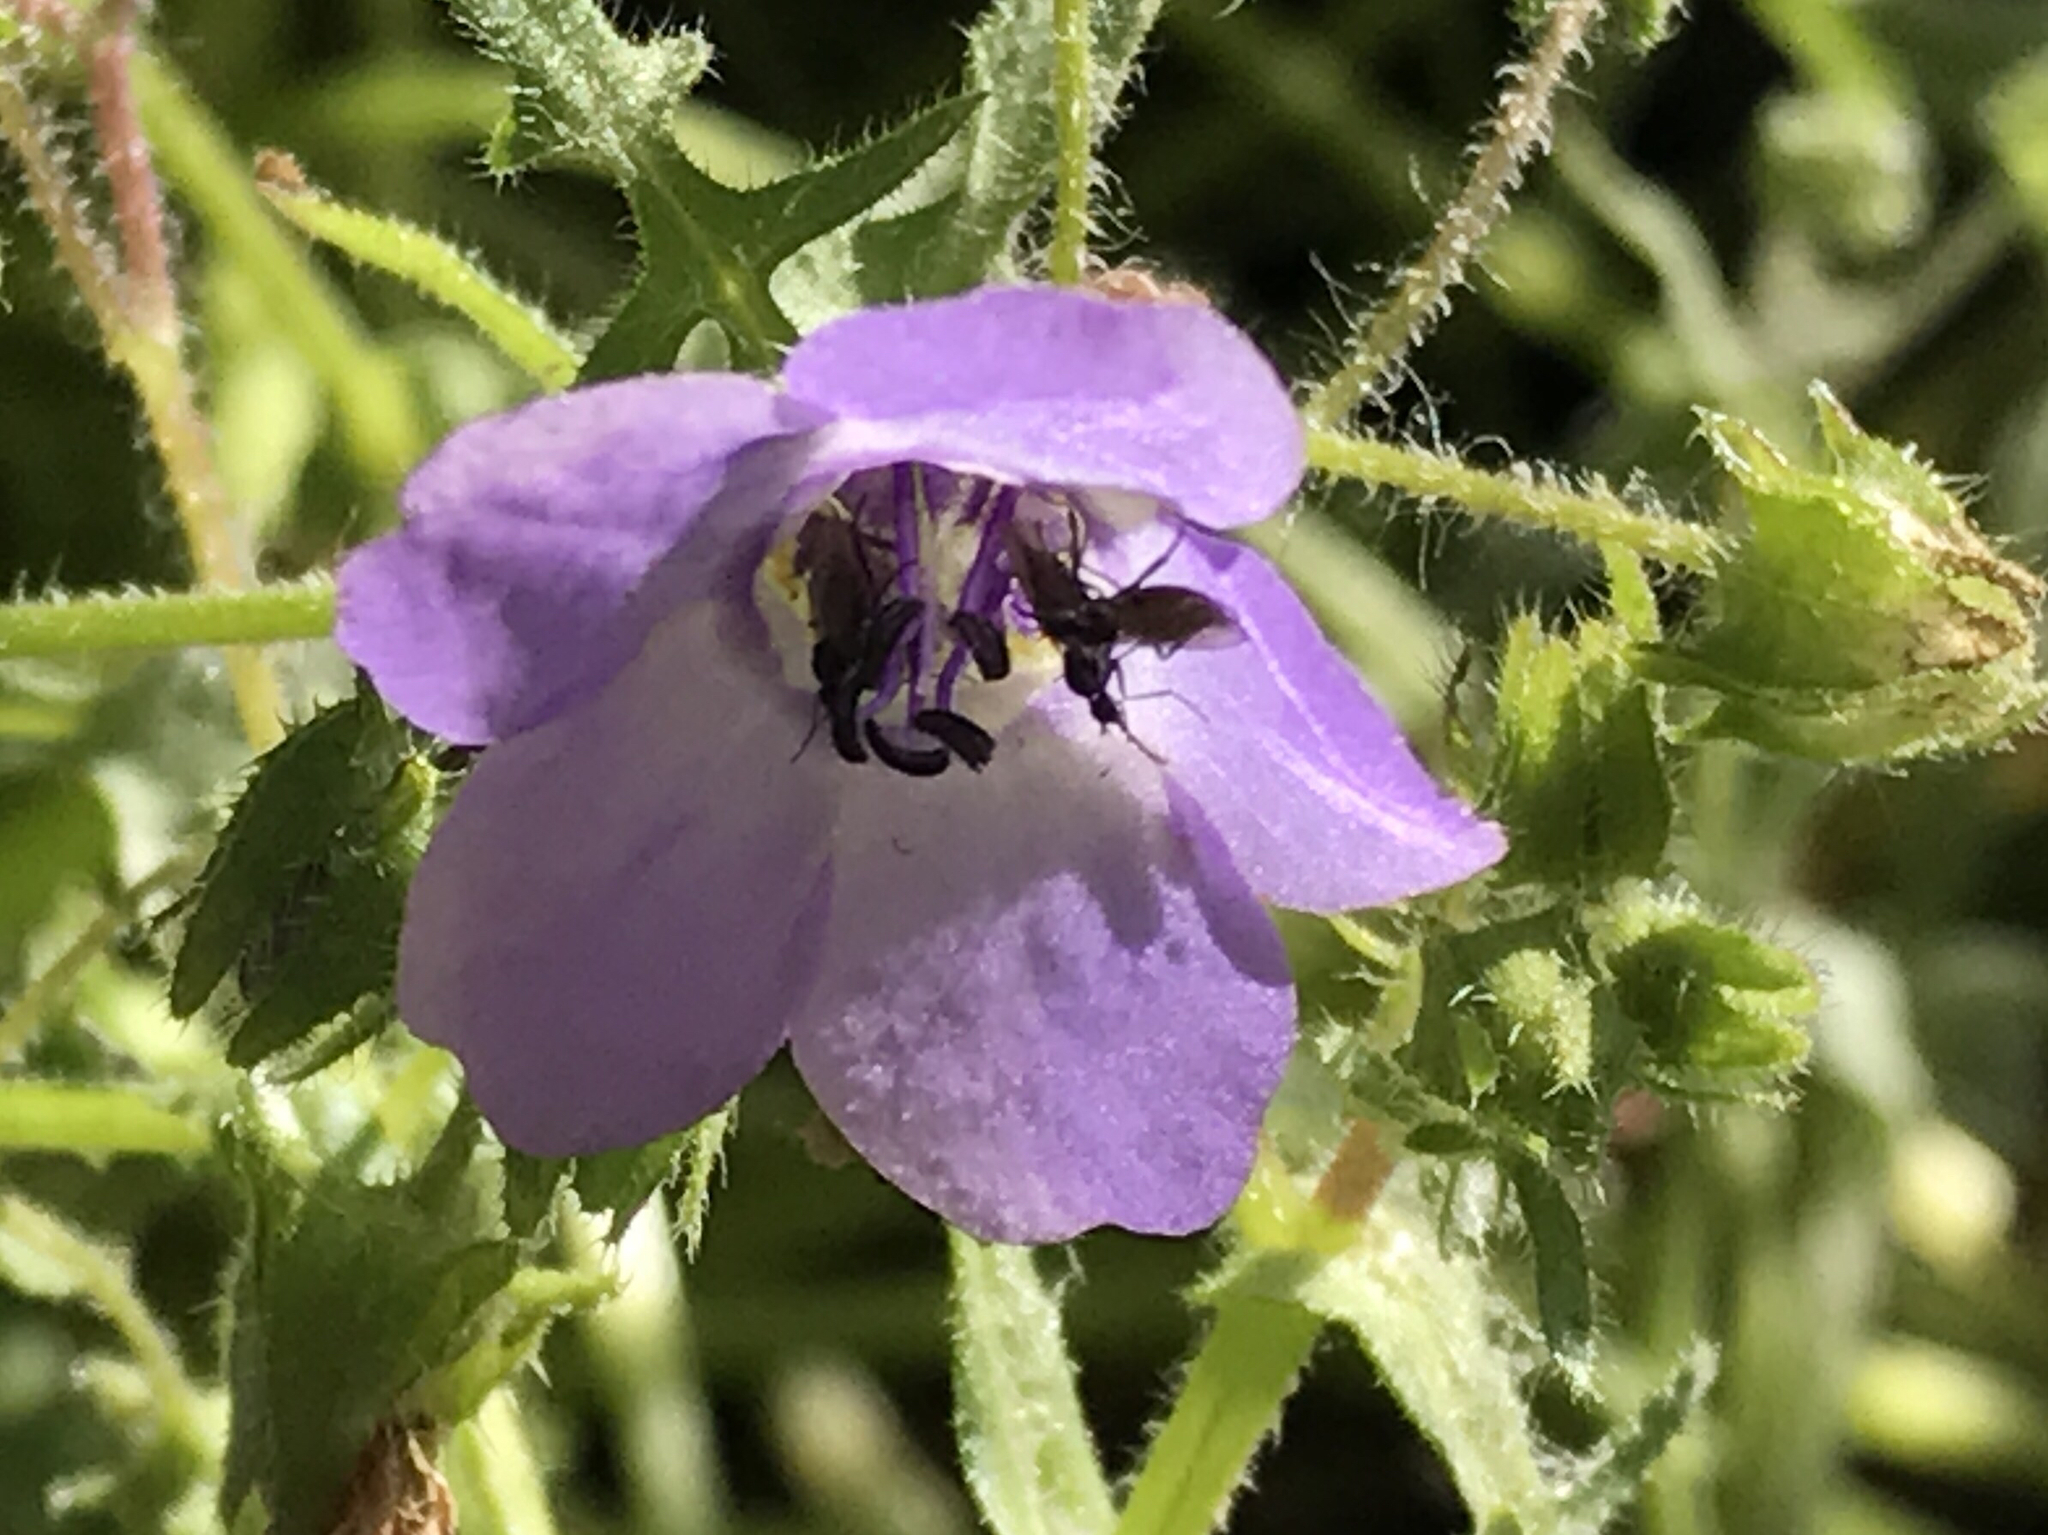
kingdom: Plantae
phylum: Tracheophyta
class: Magnoliopsida
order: Boraginales
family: Hydrophyllaceae
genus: Pholistoma
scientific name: Pholistoma auritum
